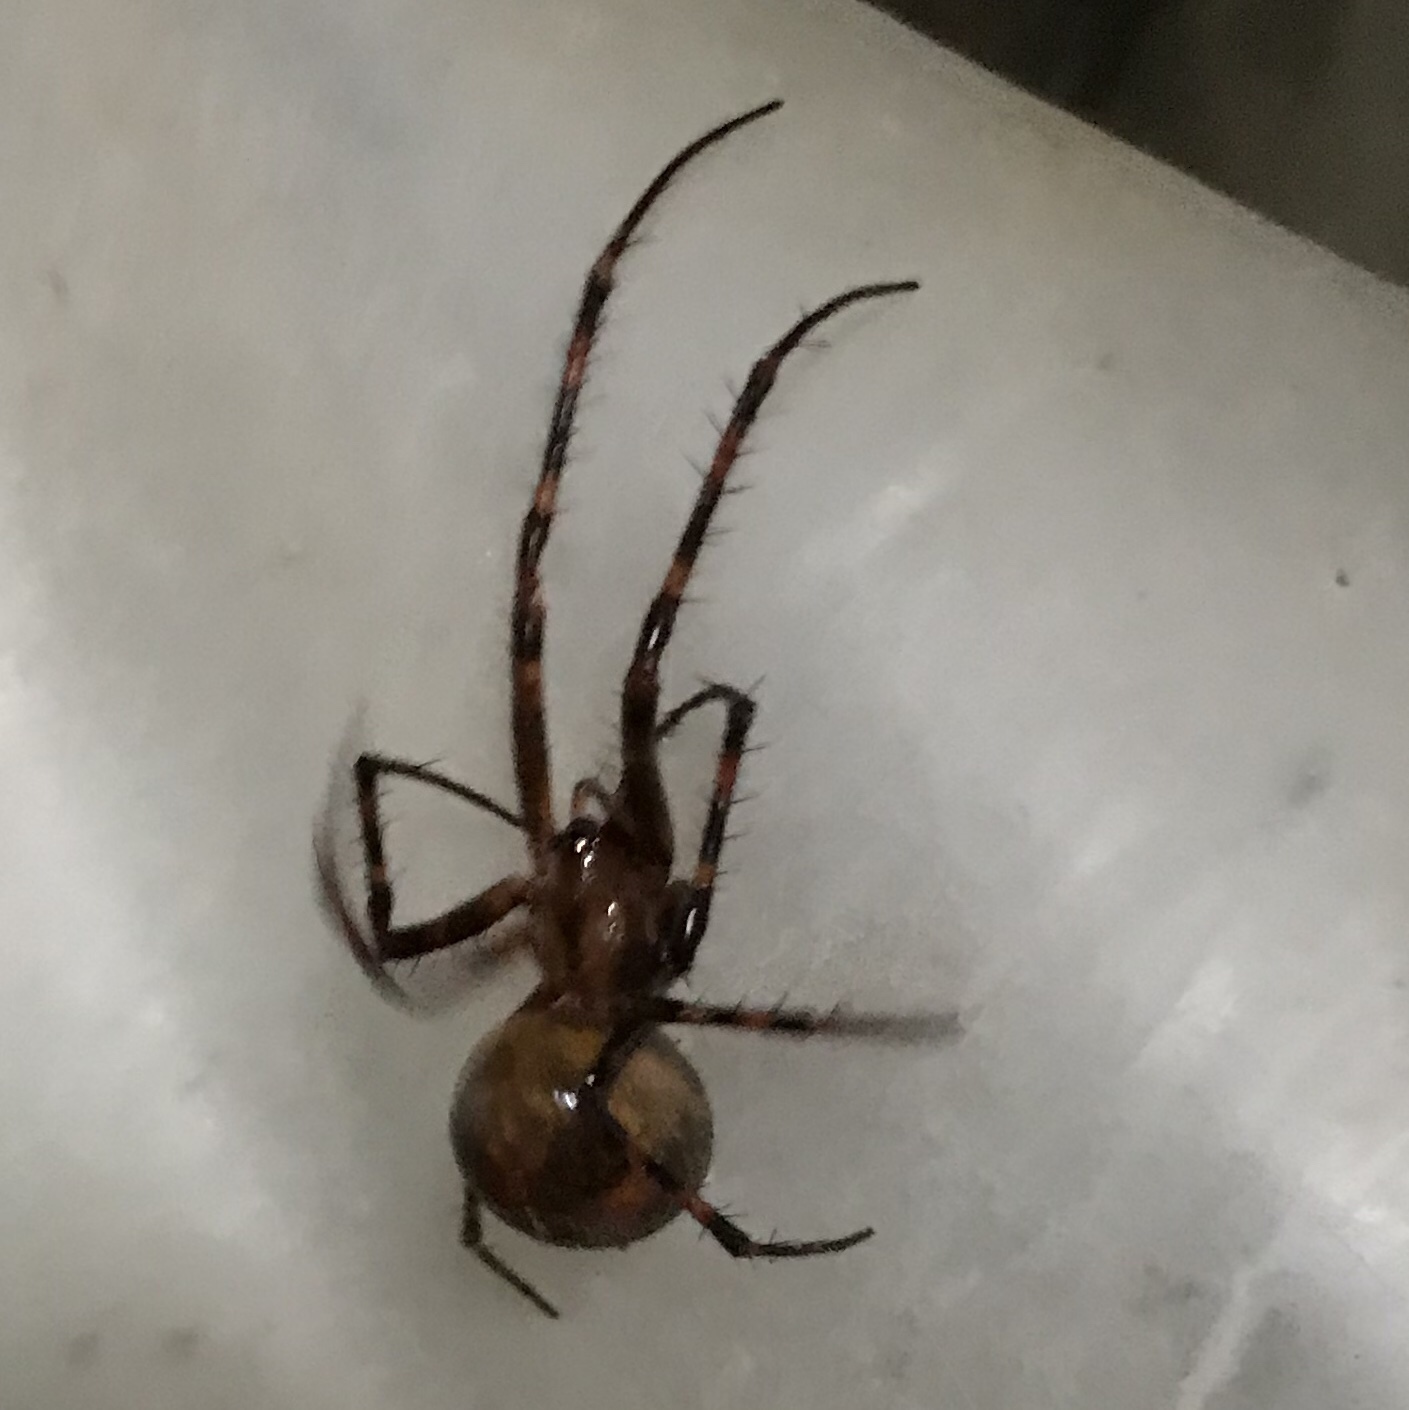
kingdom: Animalia
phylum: Arthropoda
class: Arachnida
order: Araneae
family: Tetragnathidae
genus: Meta
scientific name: Meta menardi
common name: Cave spider
